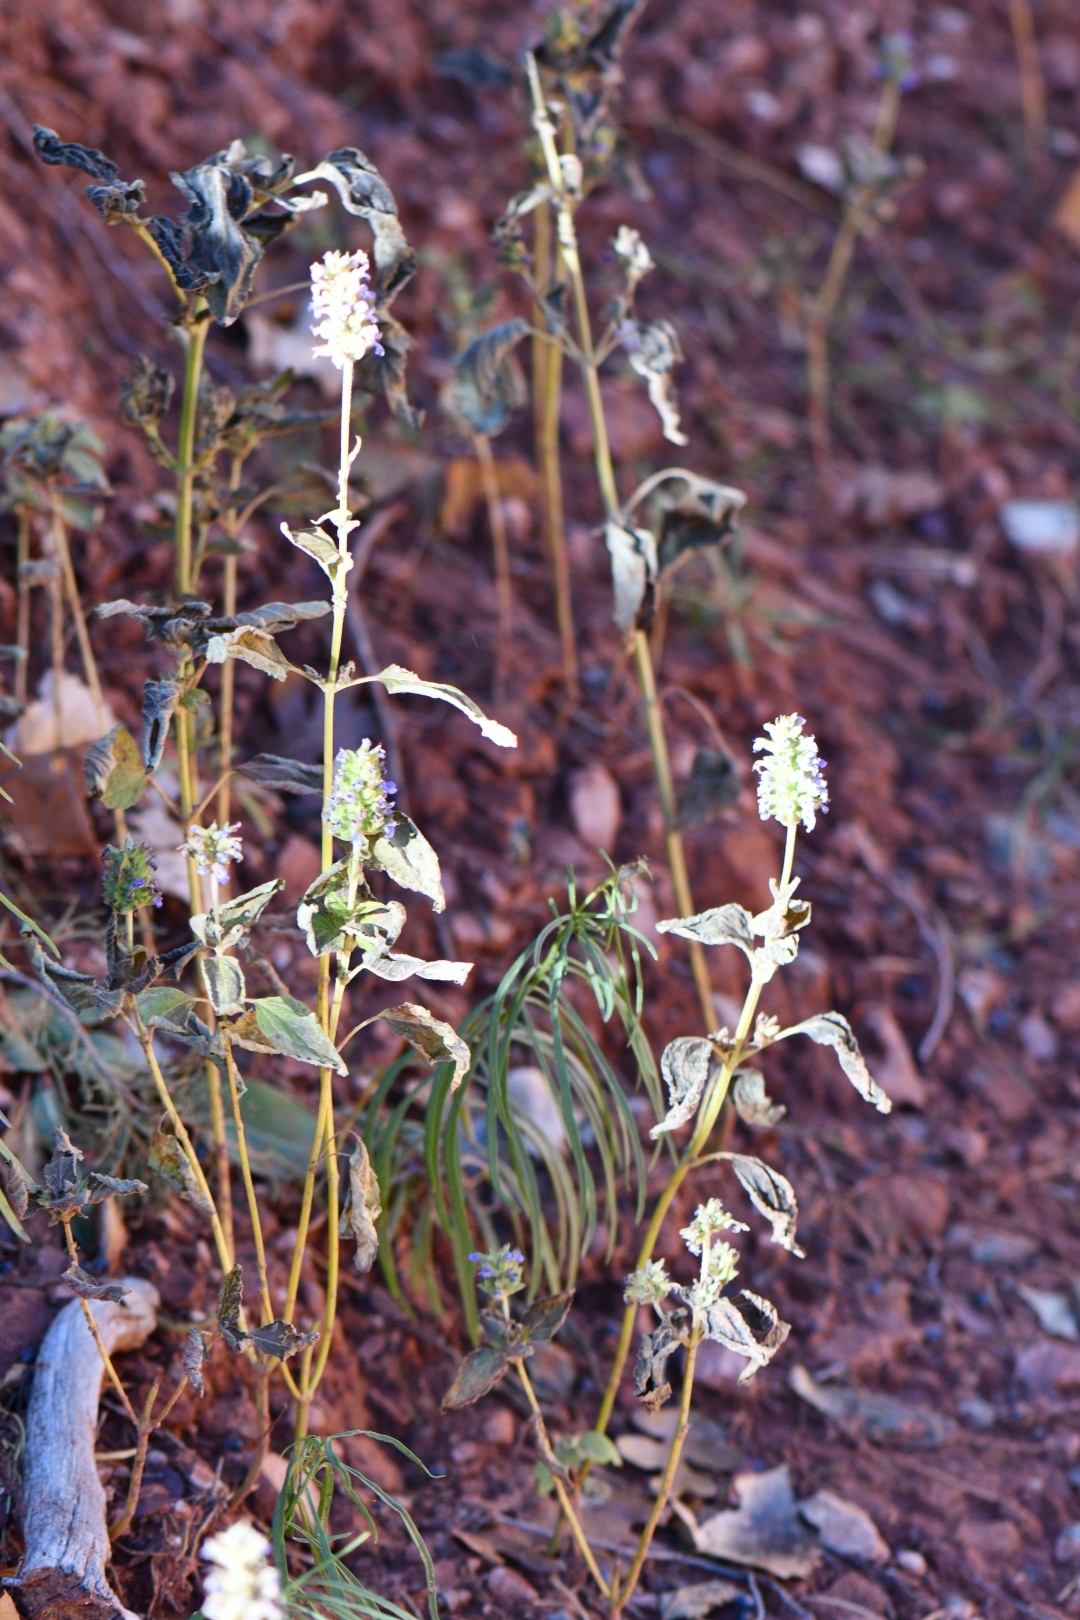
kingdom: Plantae
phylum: Tracheophyta
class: Magnoliopsida
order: Lamiales
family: Lamiaceae
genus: Salvia
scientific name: Salvia hispanica
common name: Chia
